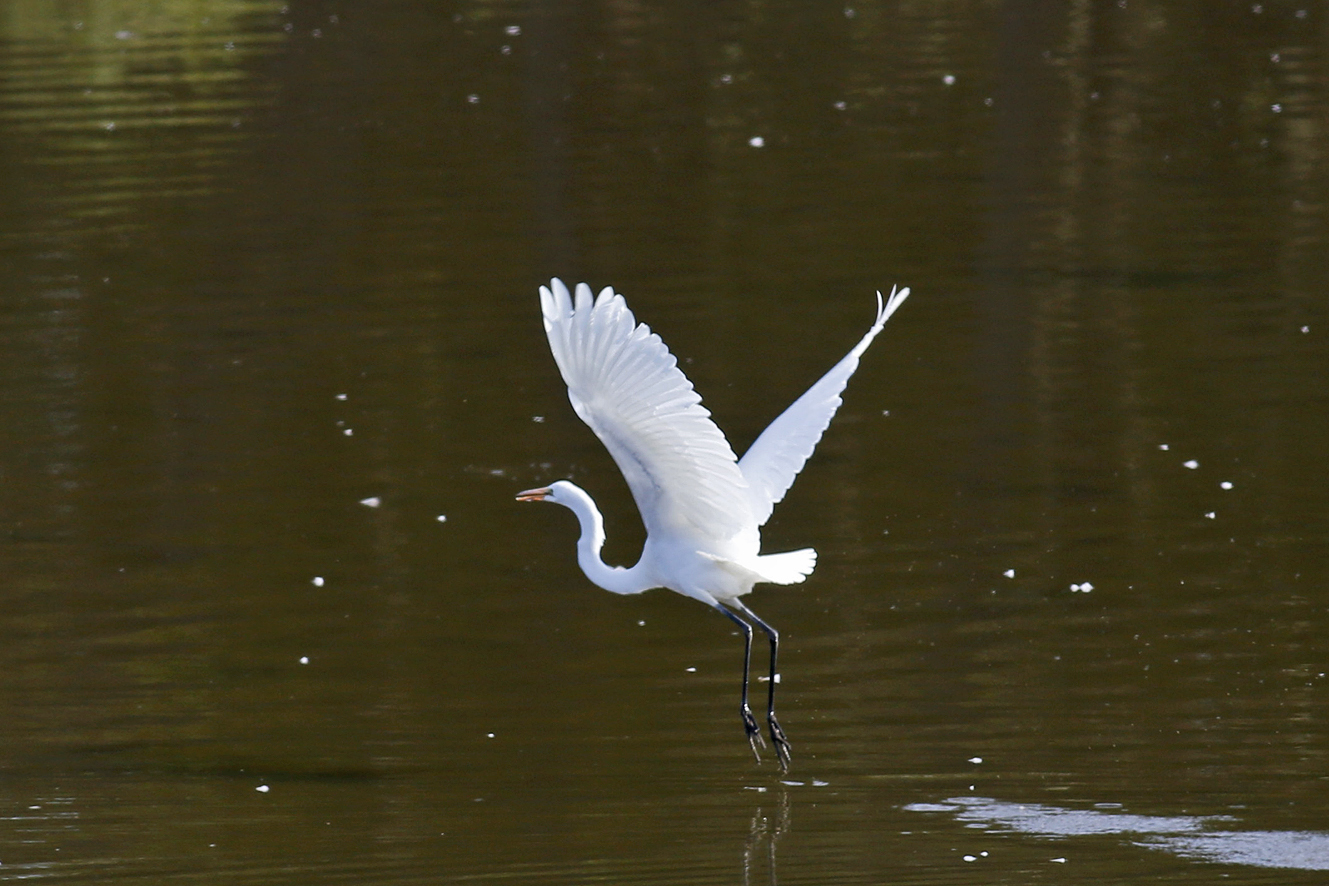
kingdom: Animalia
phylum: Chordata
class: Aves
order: Pelecaniformes
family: Ardeidae
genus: Ardea
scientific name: Ardea alba
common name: Great egret
